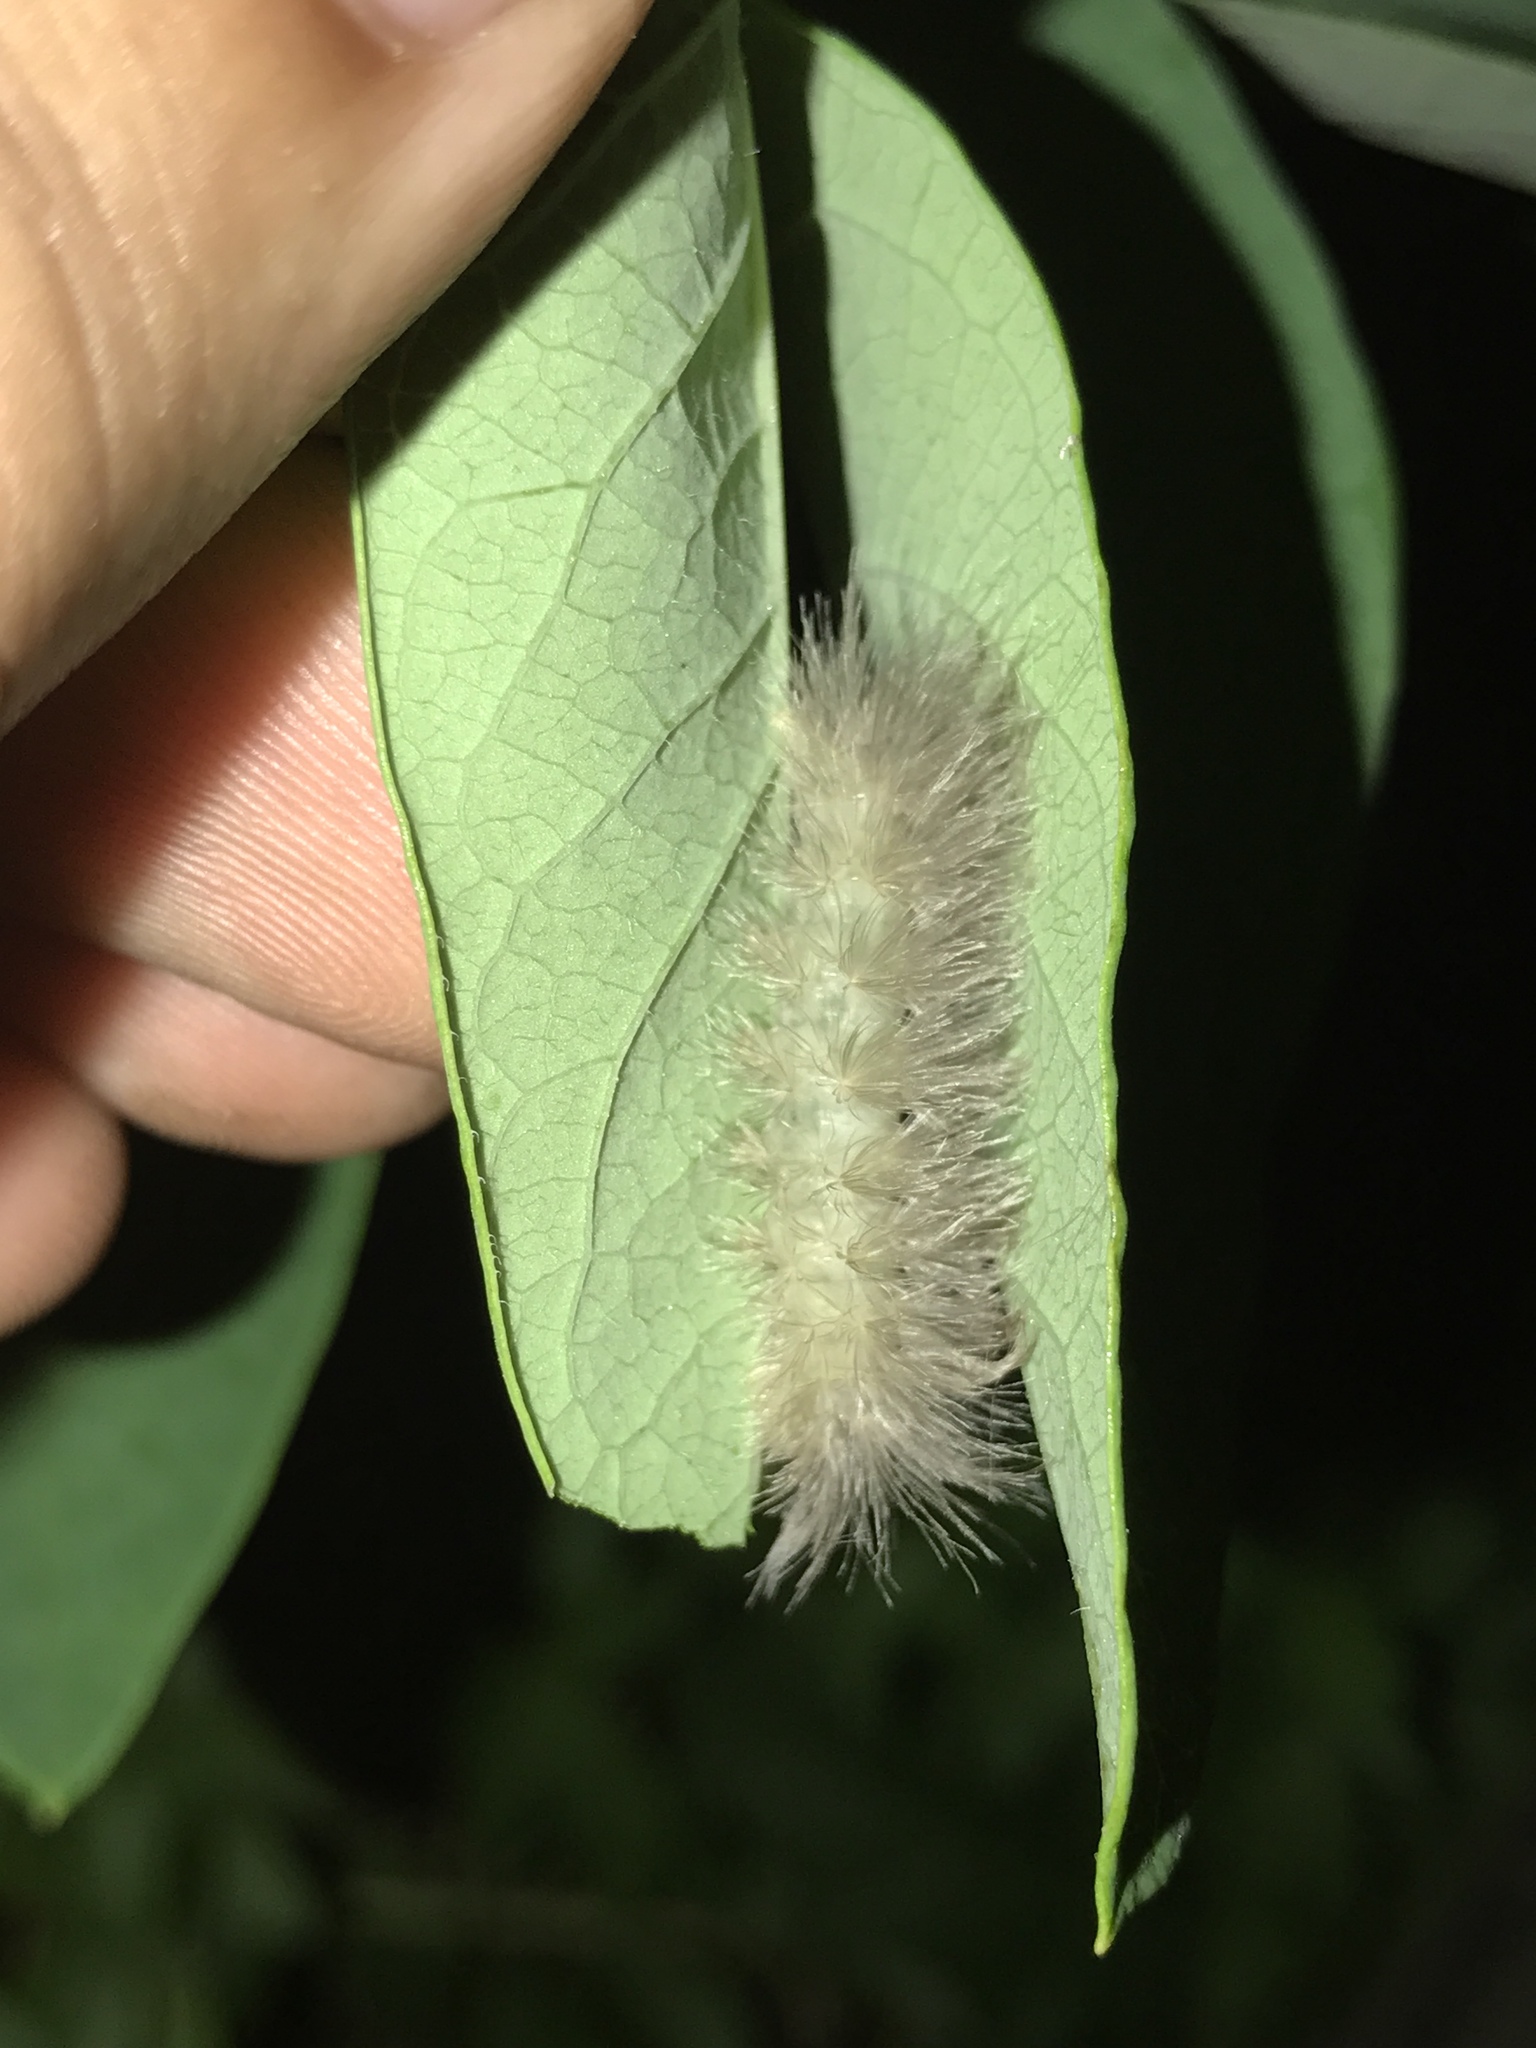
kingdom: Animalia
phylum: Arthropoda
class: Insecta
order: Lepidoptera
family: Erebidae
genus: Cycnia
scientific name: Cycnia tenera
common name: Delicate cycnia moth
